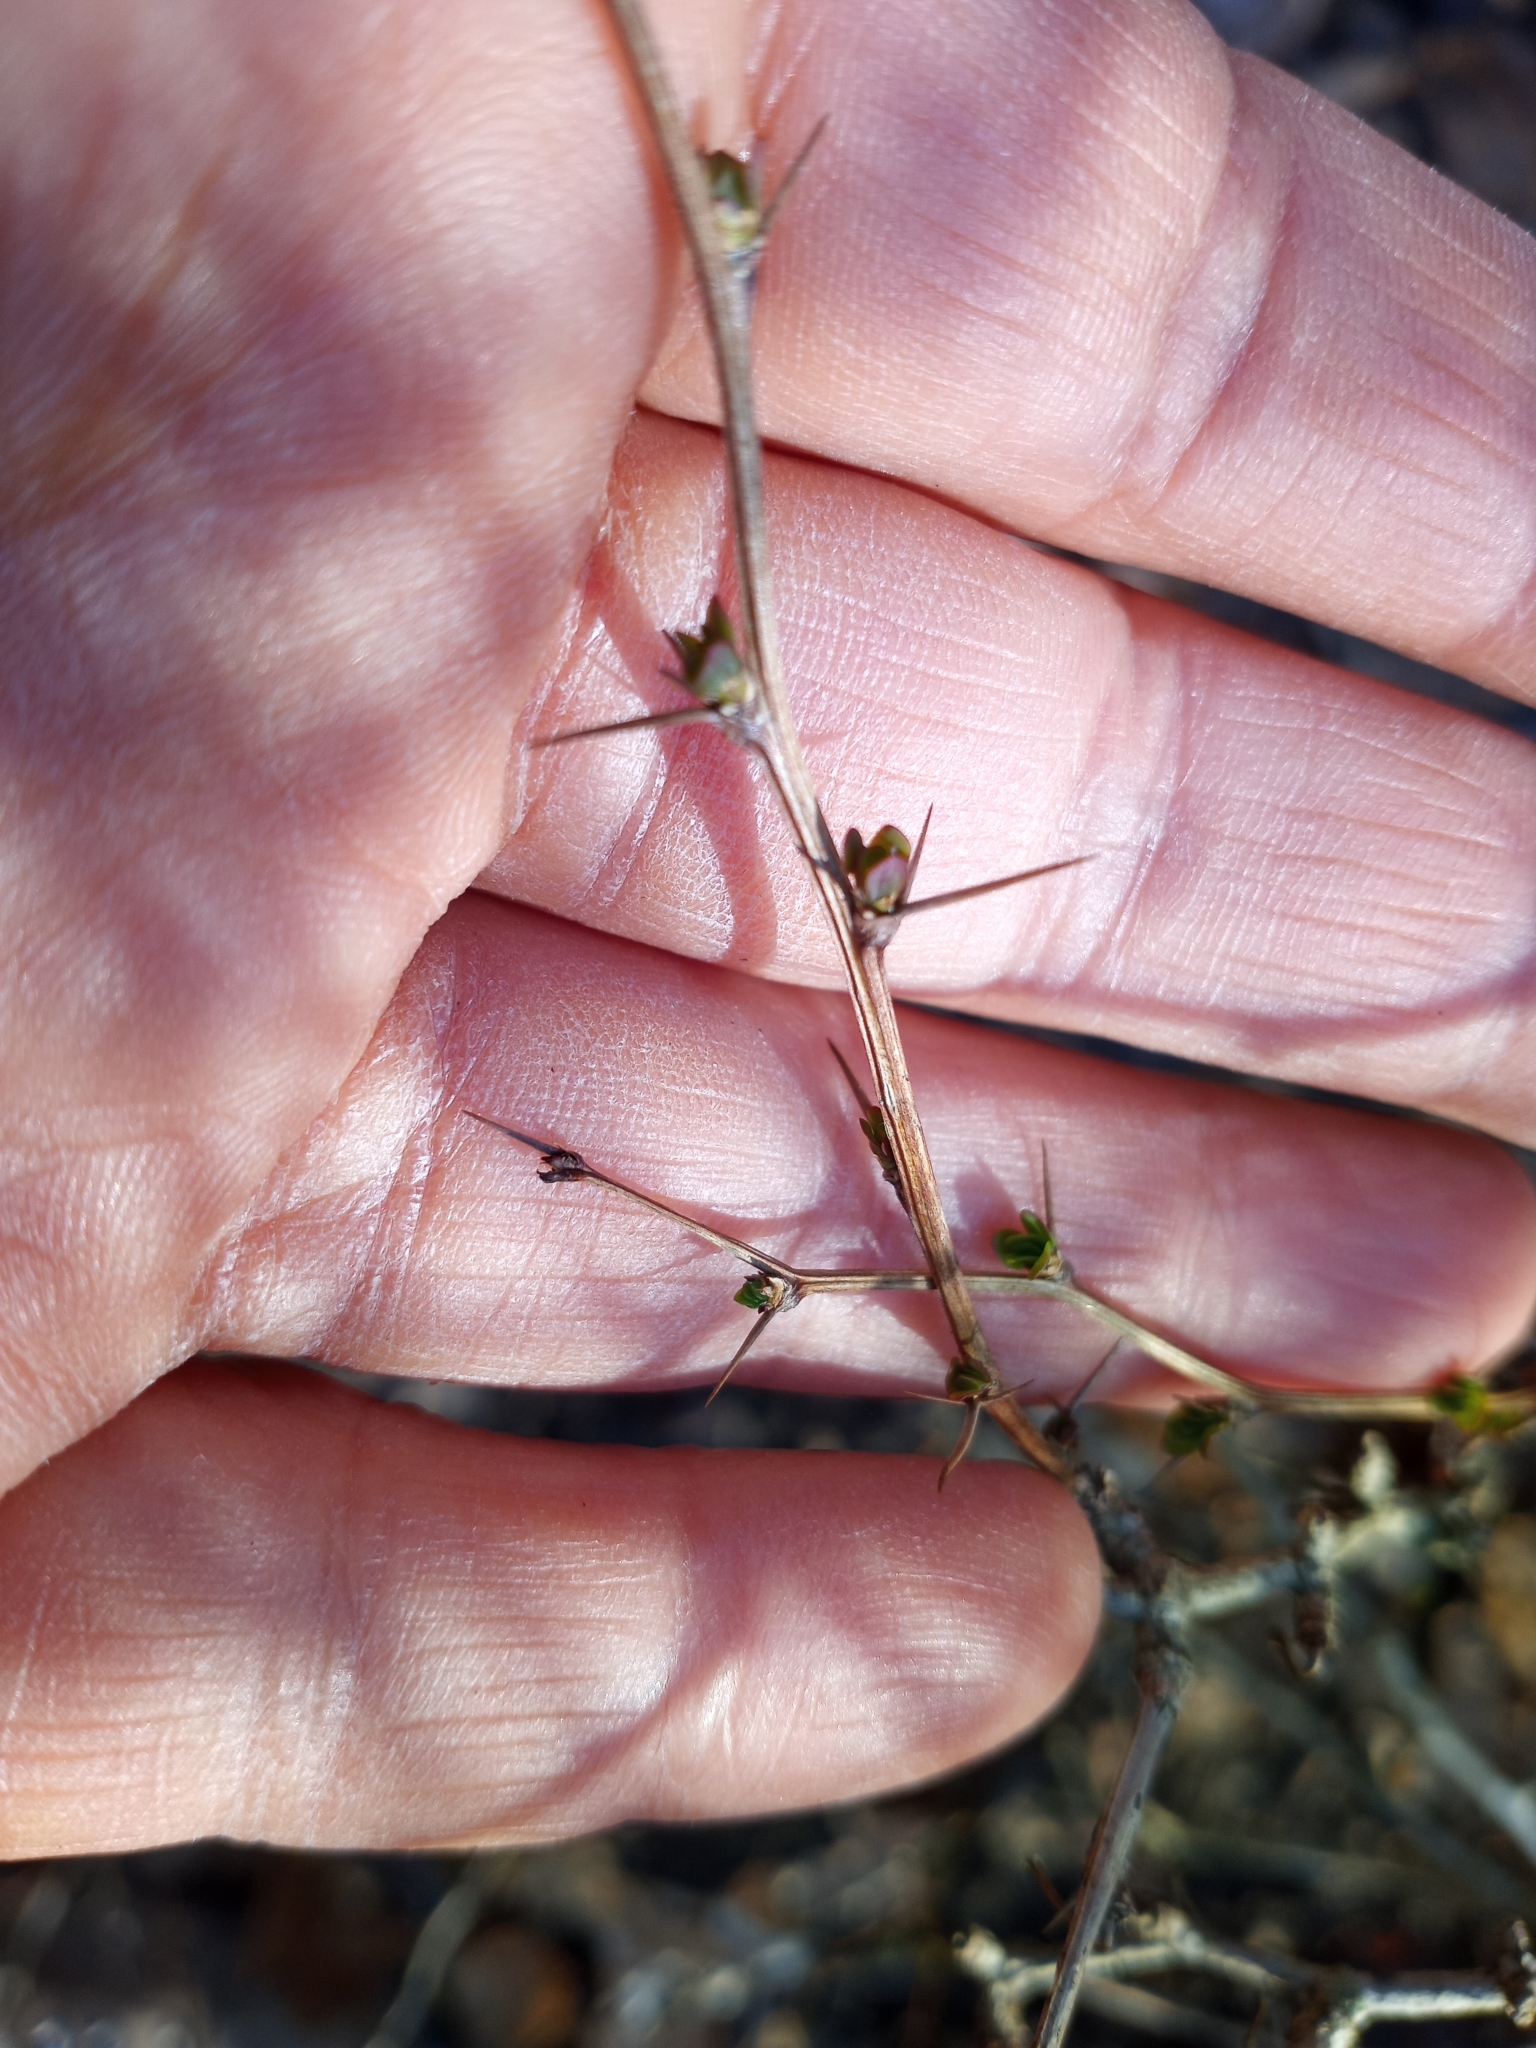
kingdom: Plantae
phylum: Tracheophyta
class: Magnoliopsida
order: Ranunculales
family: Berberidaceae
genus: Berberis
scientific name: Berberis thunbergii
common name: Japanese barberry
